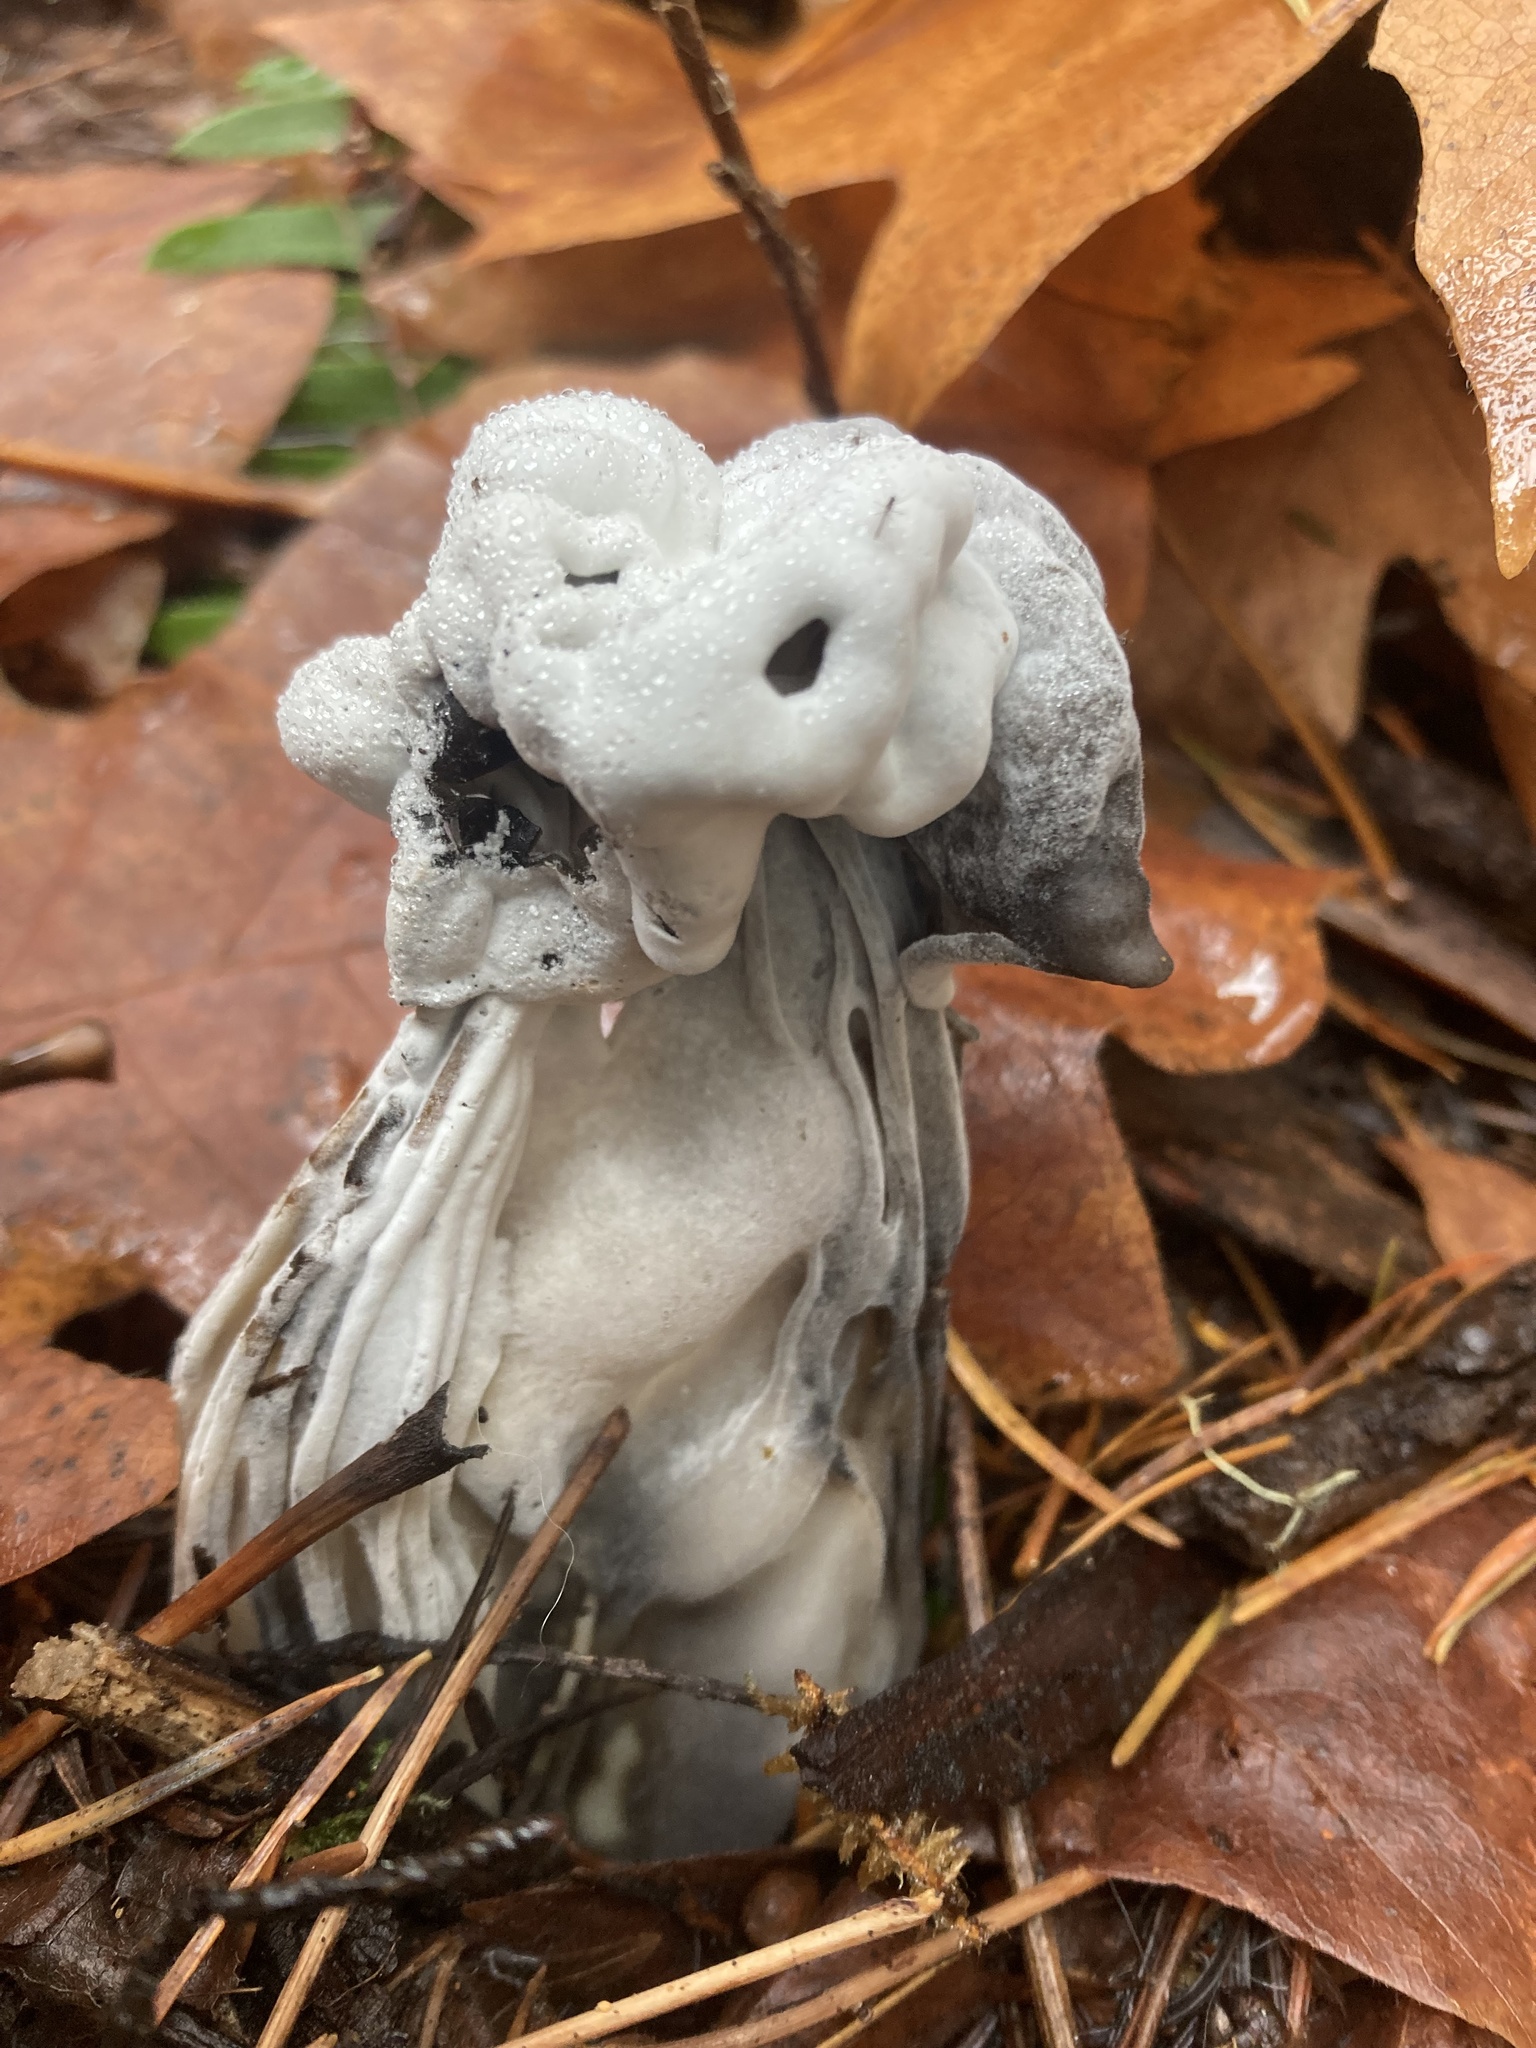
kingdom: Fungi
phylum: Ascomycota
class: Sordariomycetes
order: Hypocreales
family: Hypocreaceae
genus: Hypomyces
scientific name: Hypomyces cervinus
